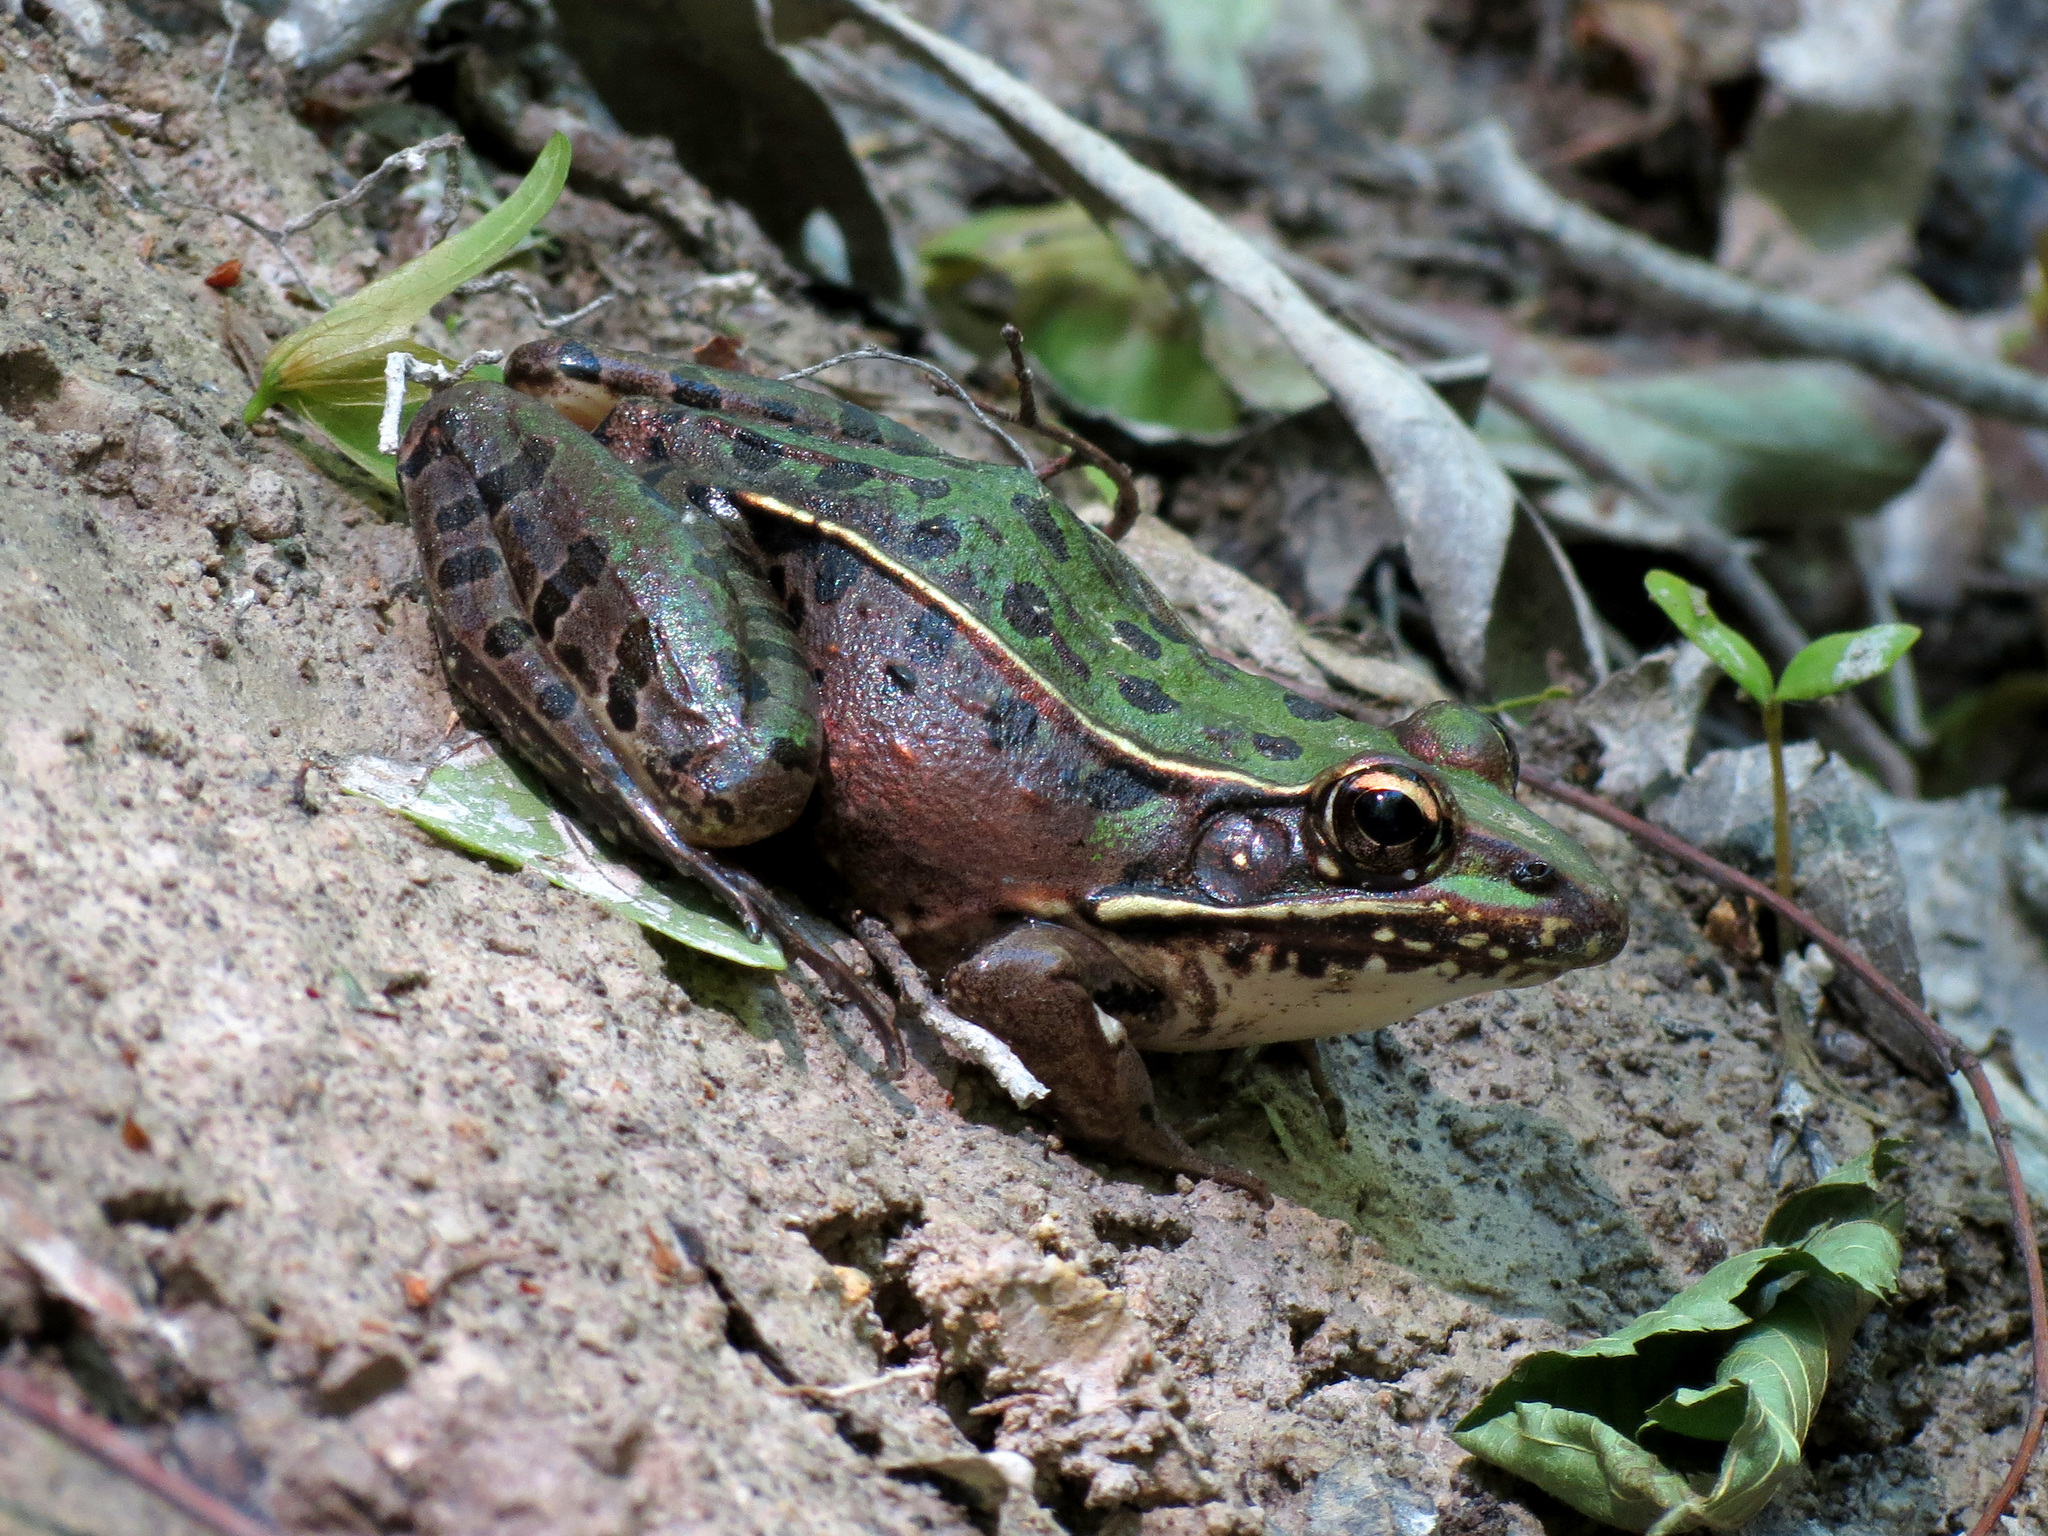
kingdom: Animalia
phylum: Chordata
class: Amphibia
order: Anura
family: Ranidae
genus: Lithobates
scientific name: Lithobates sphenocephalus
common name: Southern leopard frog
